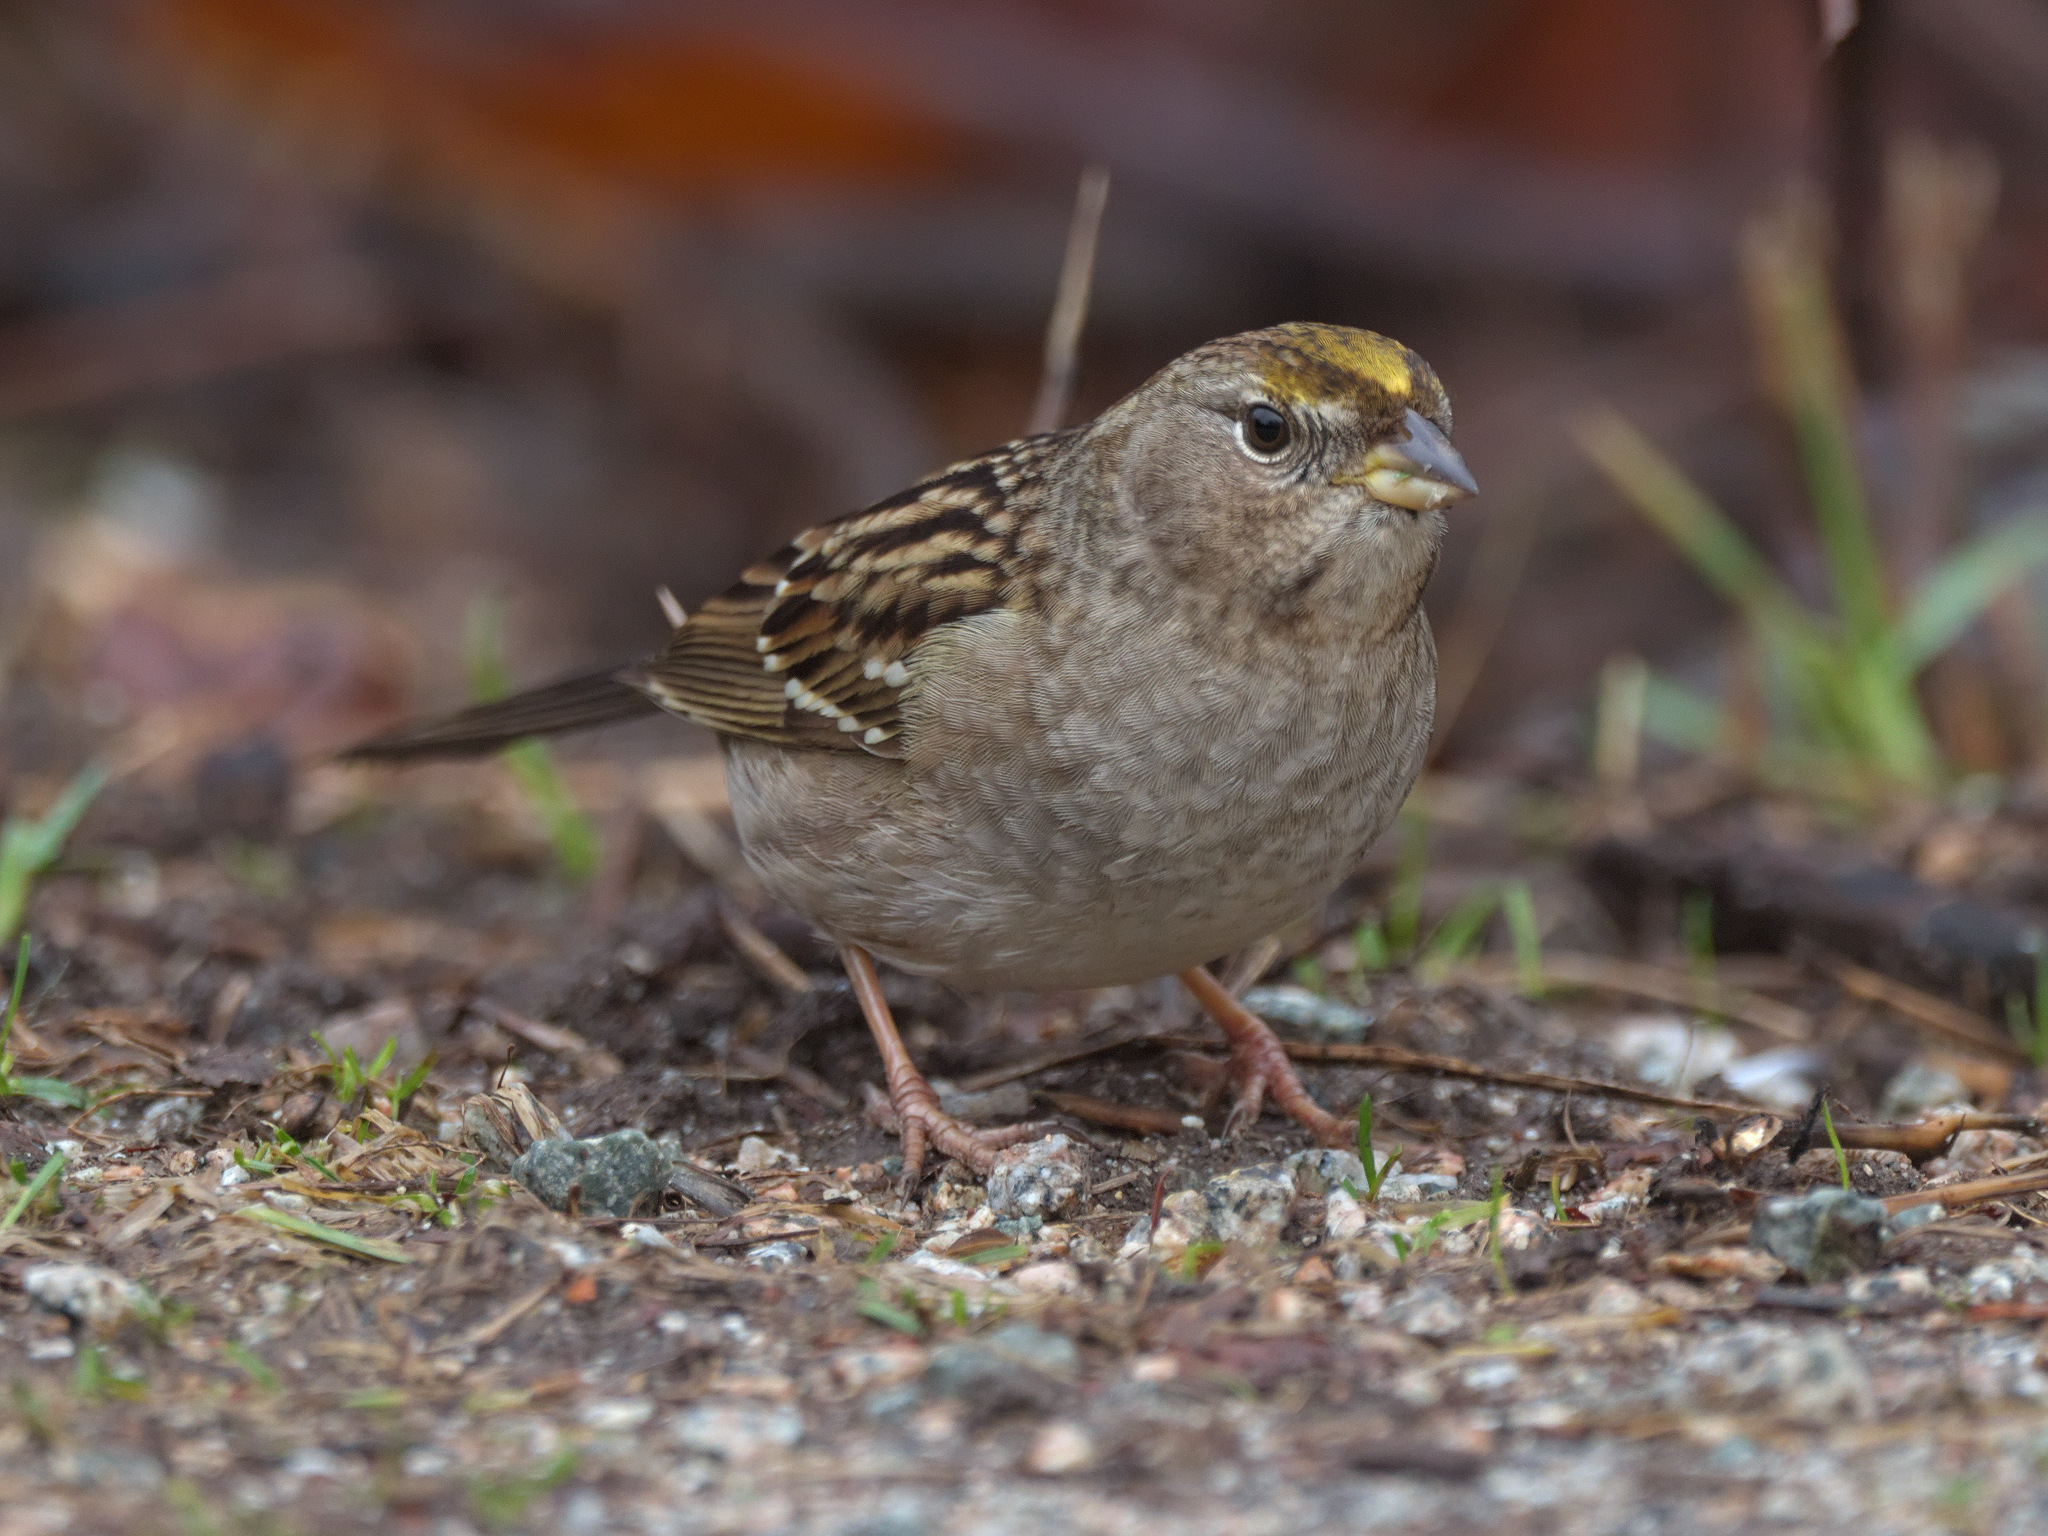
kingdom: Animalia
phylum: Chordata
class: Aves
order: Passeriformes
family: Passerellidae
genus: Zonotrichia
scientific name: Zonotrichia atricapilla
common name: Golden-crowned sparrow
